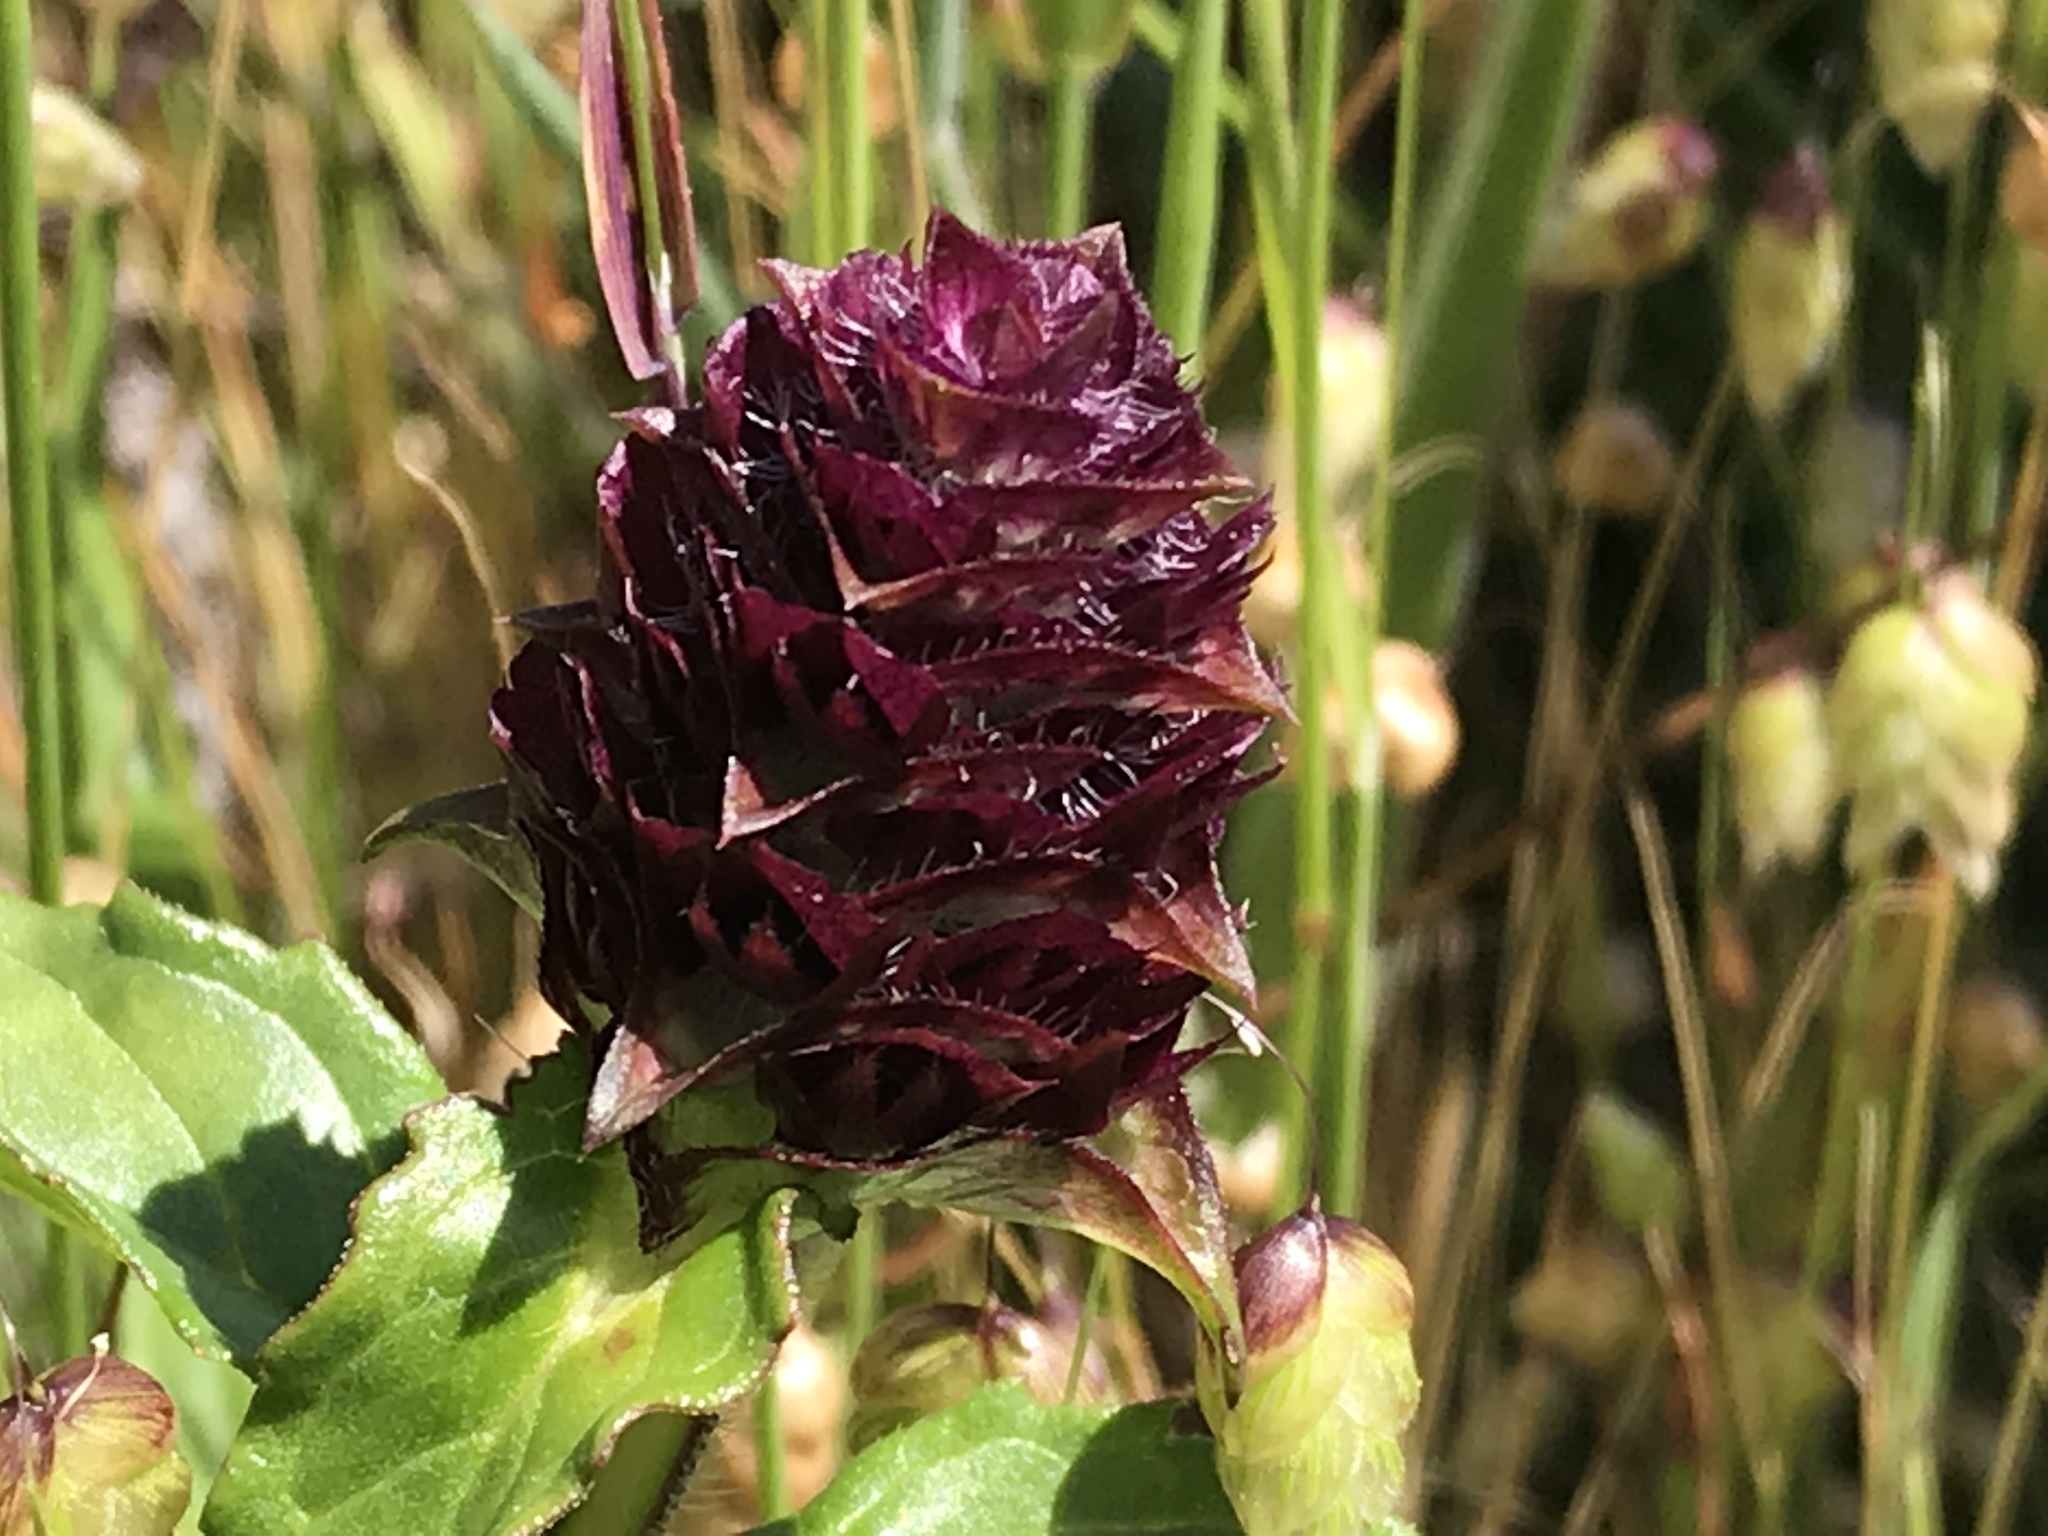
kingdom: Plantae
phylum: Tracheophyta
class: Magnoliopsida
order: Lamiales
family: Lamiaceae
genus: Prunella
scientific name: Prunella vulgaris
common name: Heal-all
